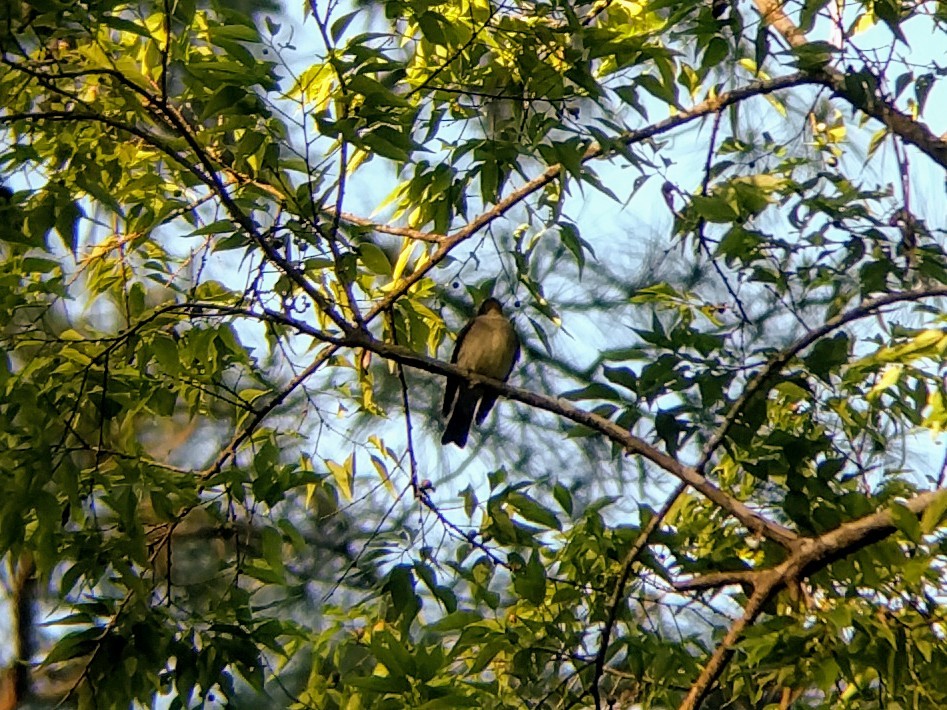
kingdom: Animalia
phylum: Chordata
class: Aves
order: Passeriformes
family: Tyrannidae
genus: Contopus
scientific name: Contopus virens
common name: Eastern wood-pewee
